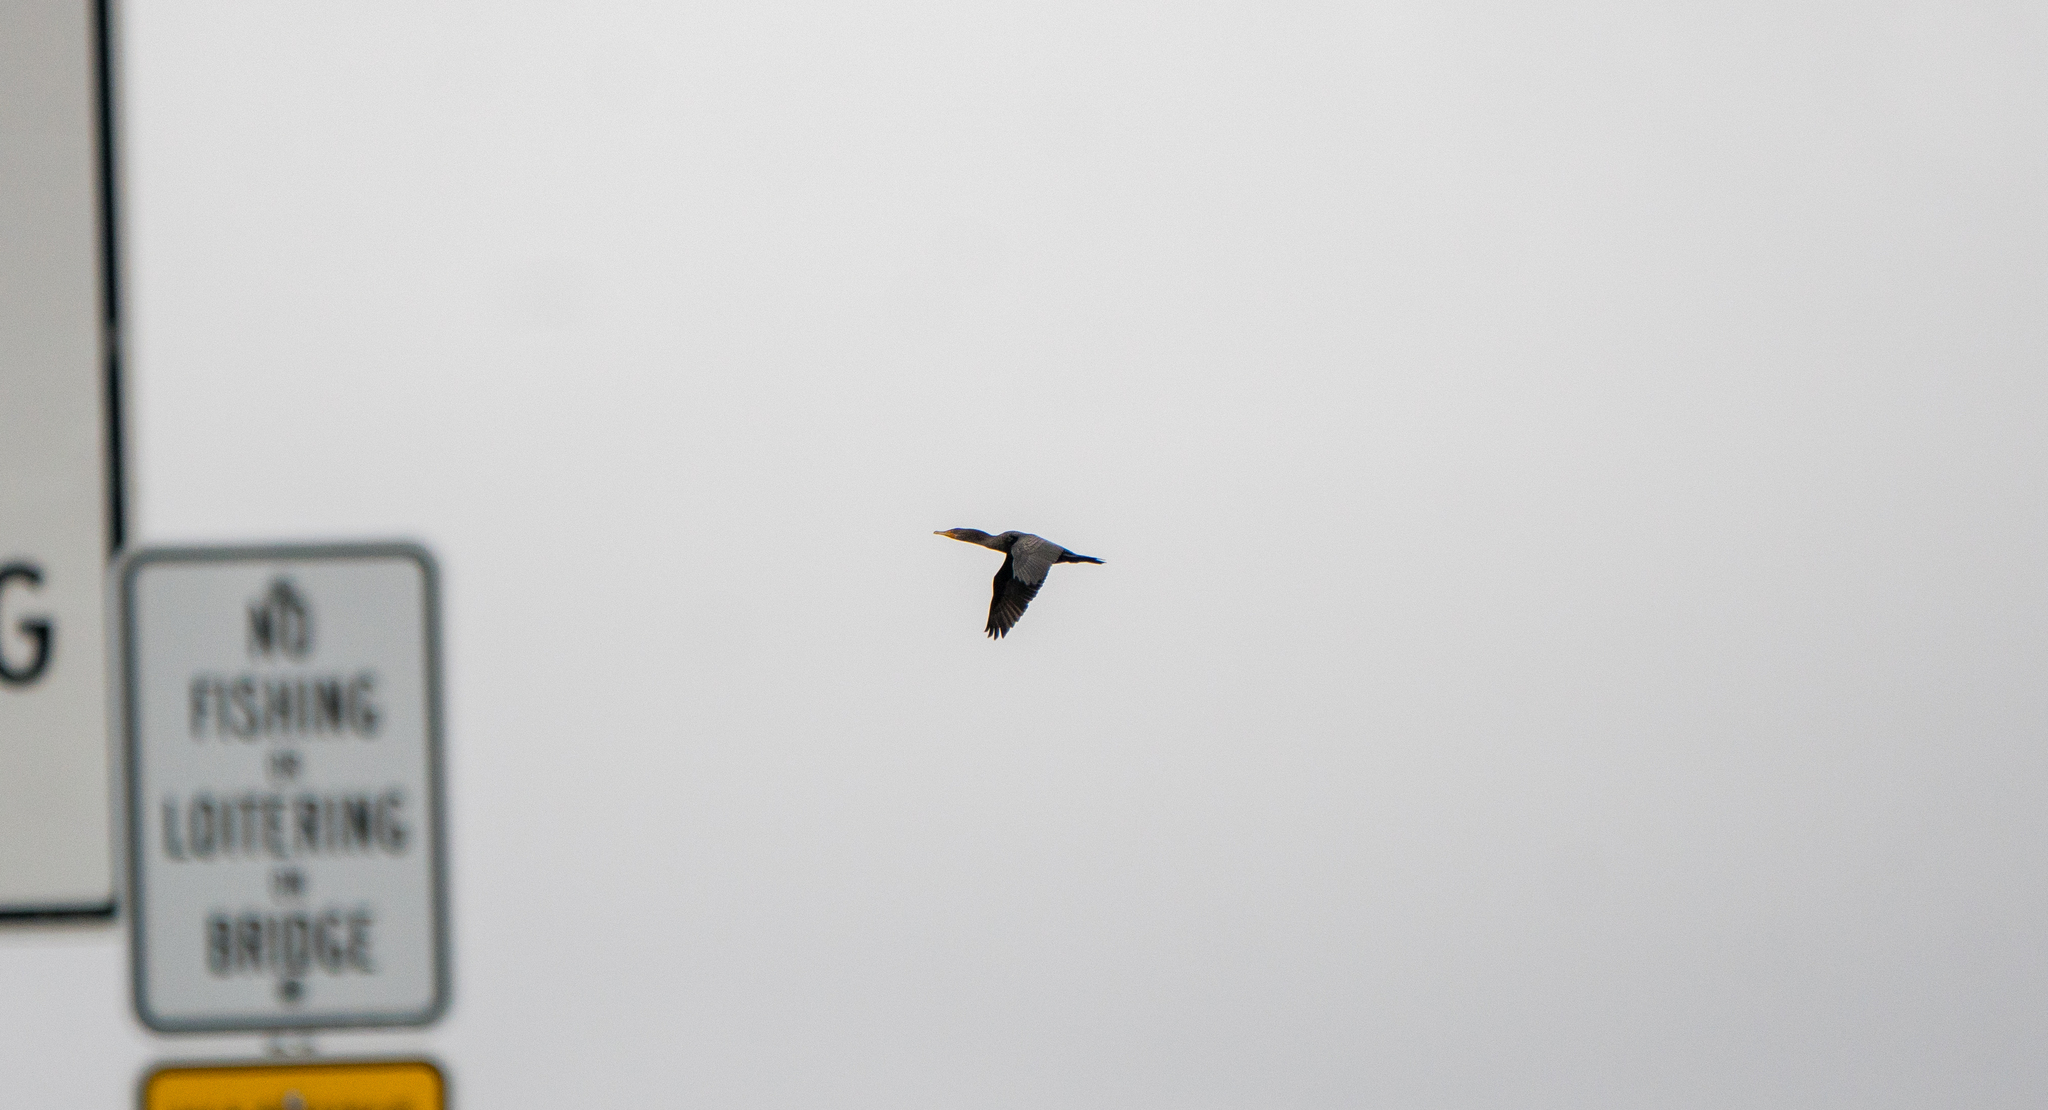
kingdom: Animalia
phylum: Chordata
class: Aves
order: Suliformes
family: Phalacrocoracidae
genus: Phalacrocorax
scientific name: Phalacrocorax auritus
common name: Double-crested cormorant
